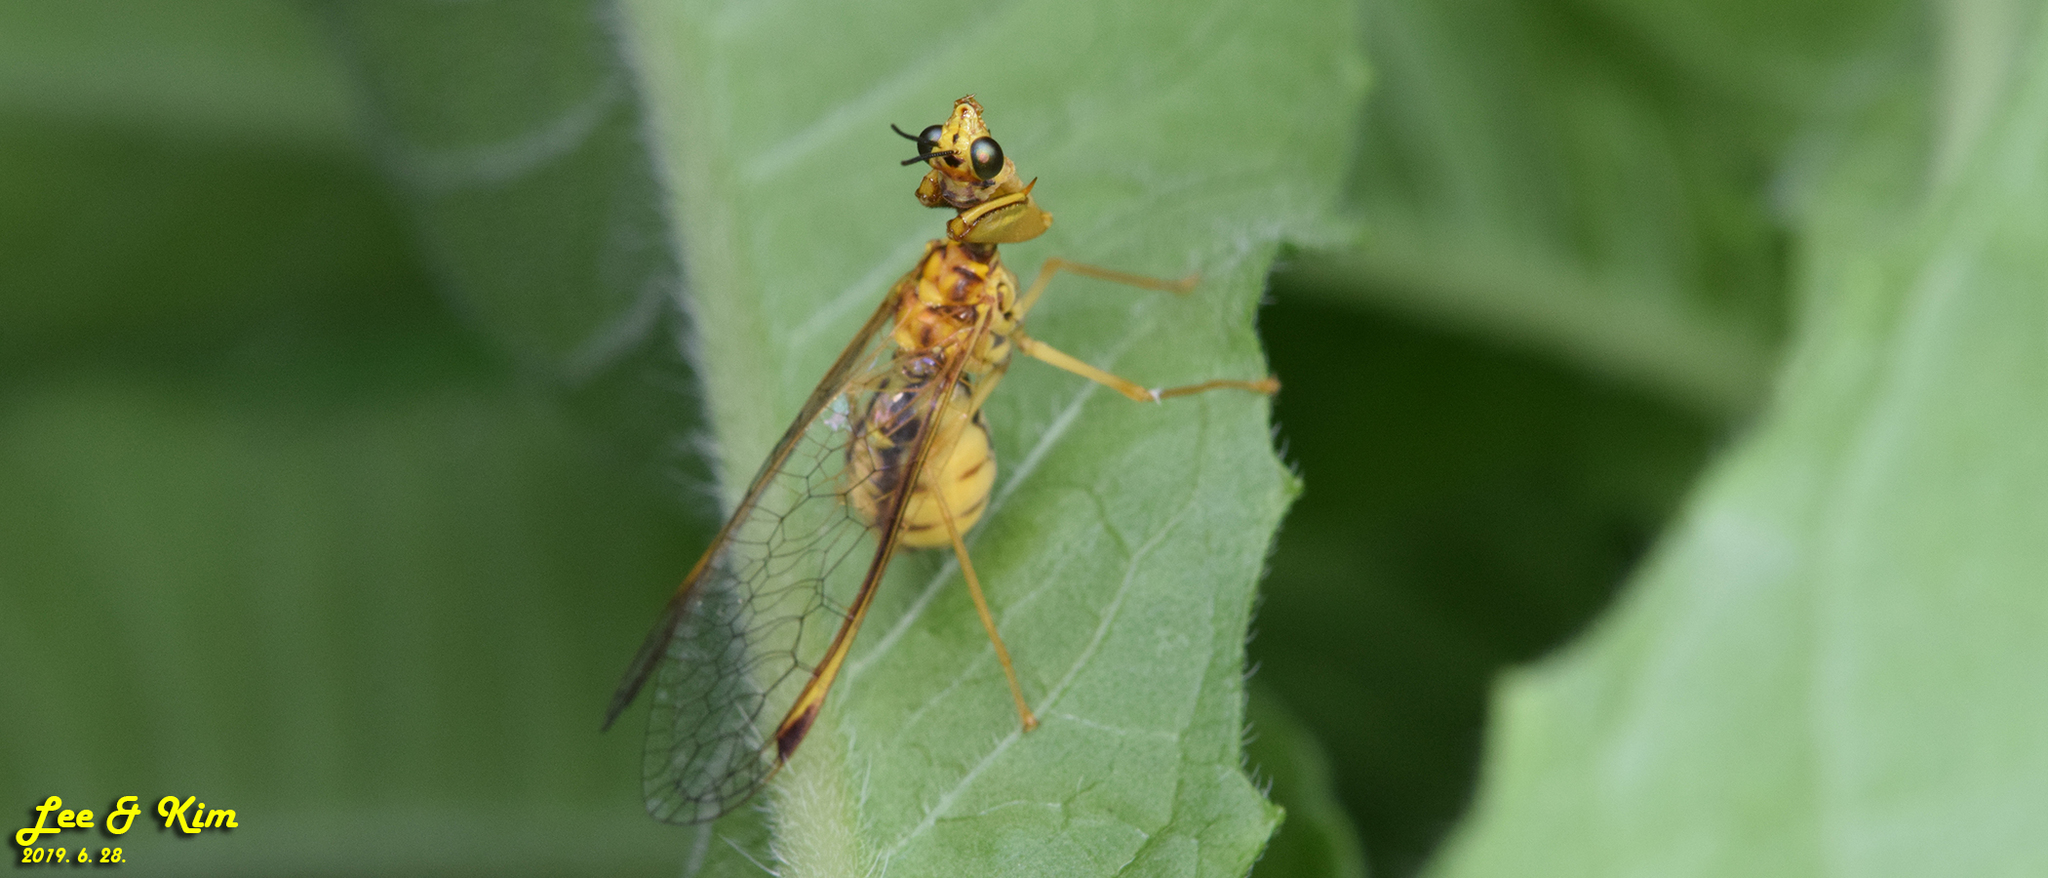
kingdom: Animalia
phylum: Arthropoda
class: Insecta
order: Neuroptera
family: Mantispidae
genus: Mantispa
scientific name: Mantispa japonica
